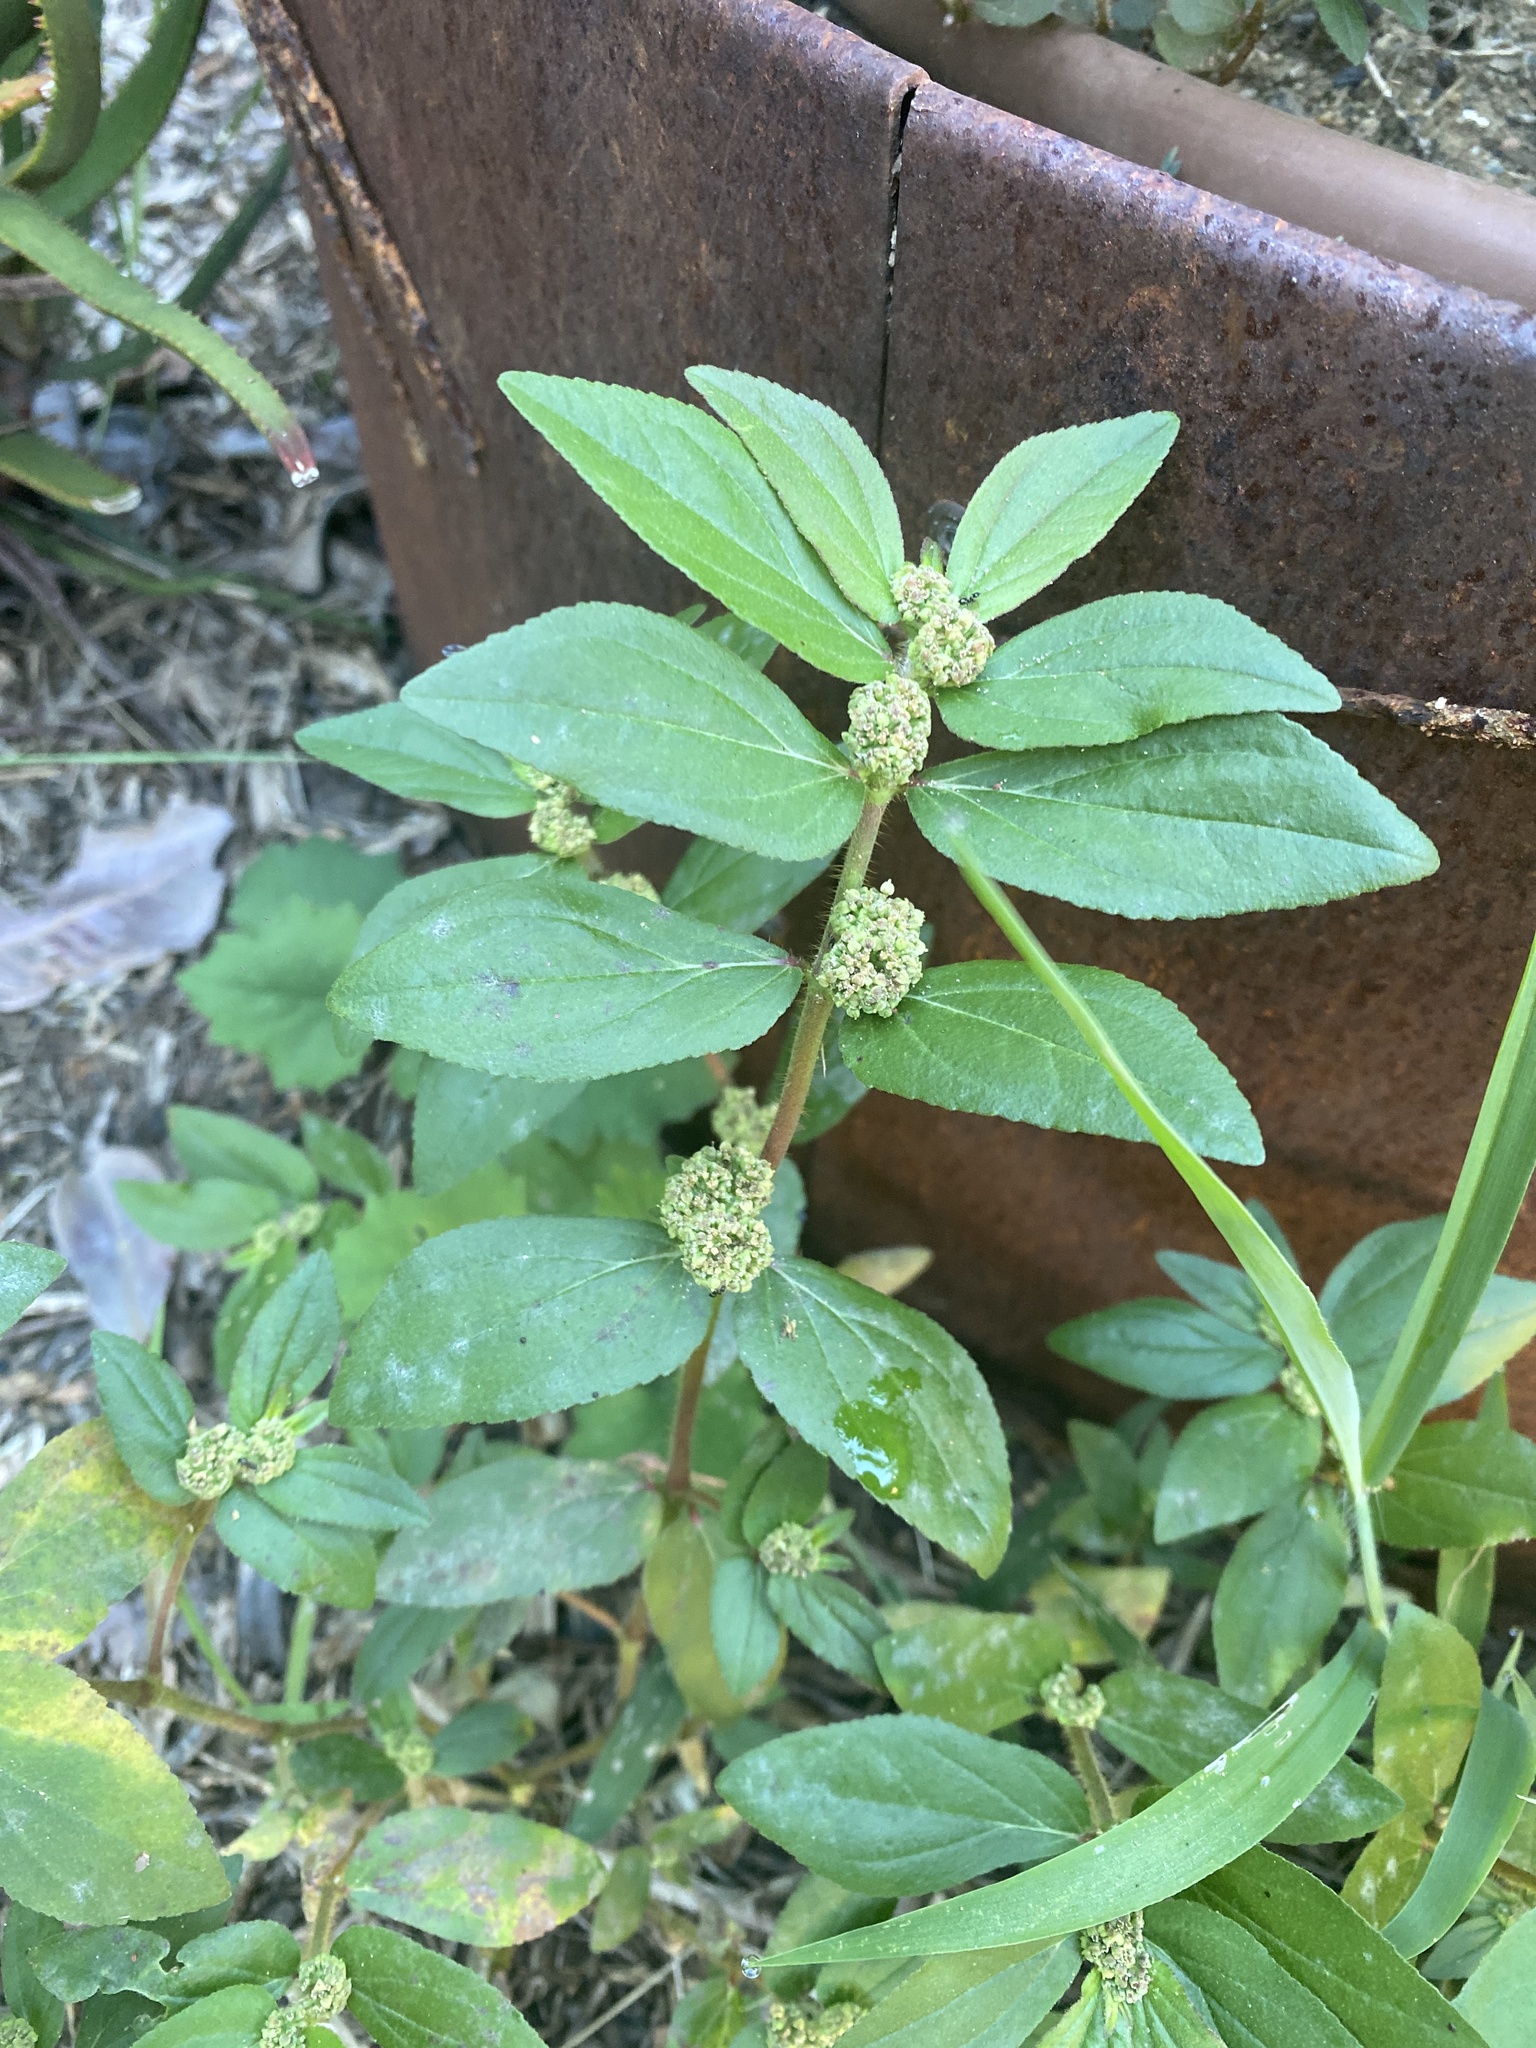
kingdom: Plantae
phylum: Tracheophyta
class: Magnoliopsida
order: Malpighiales
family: Euphorbiaceae
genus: Euphorbia
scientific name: Euphorbia hirta
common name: Pillpod sandmat
